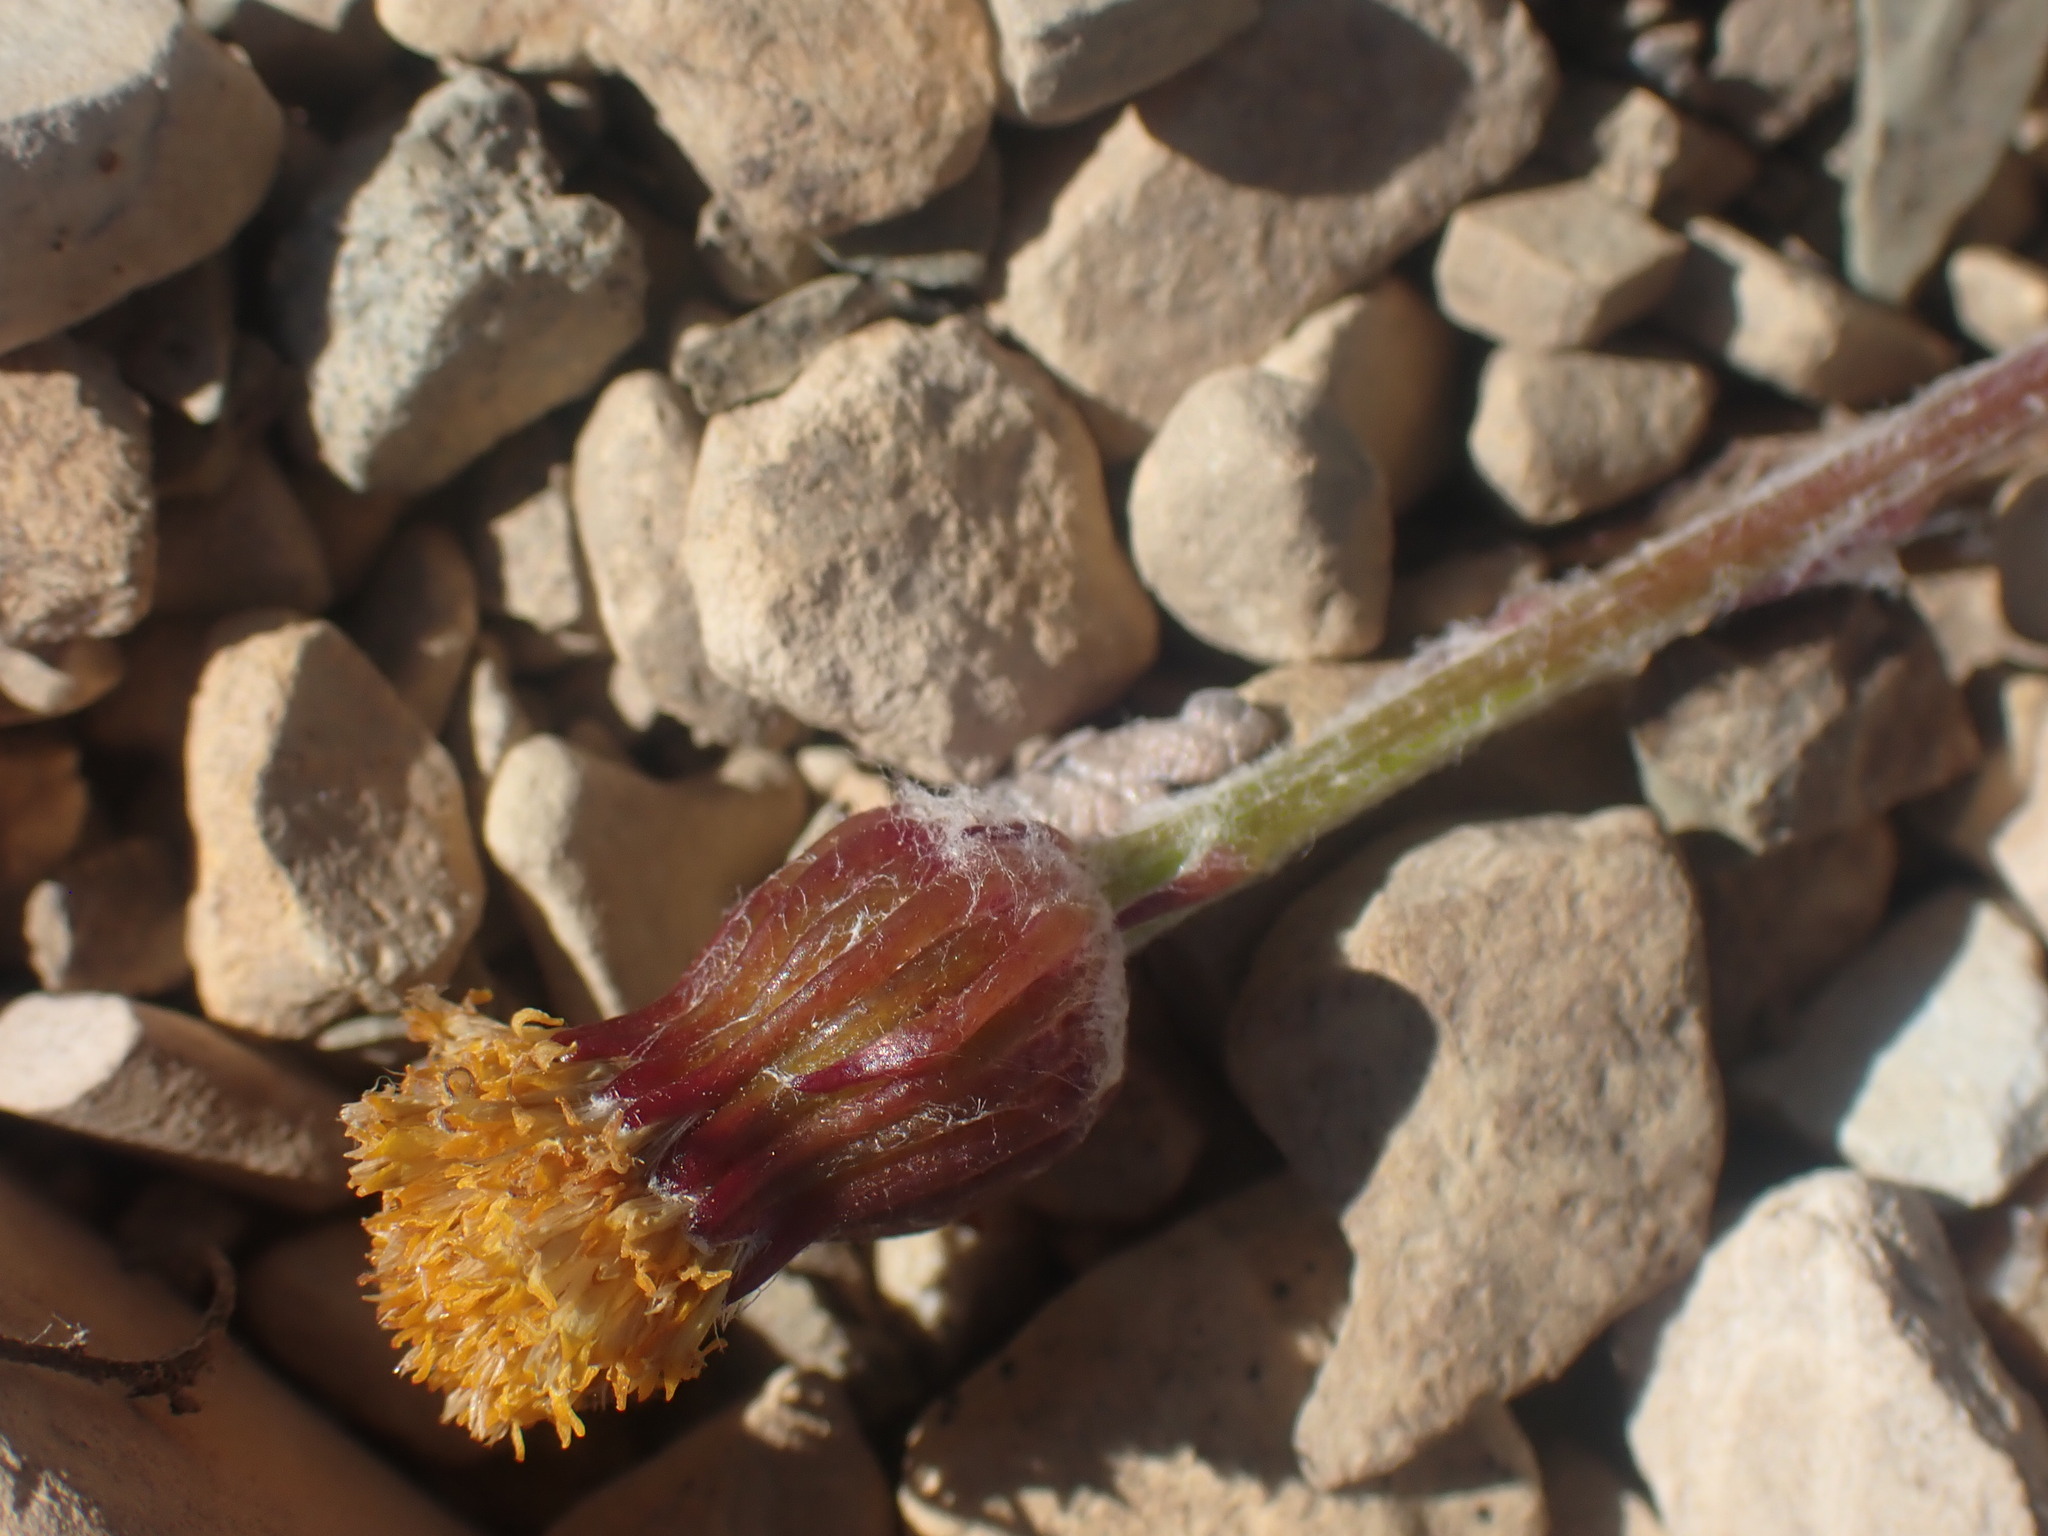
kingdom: Plantae
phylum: Tracheophyta
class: Magnoliopsida
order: Asterales
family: Asteraceae
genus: Packera
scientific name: Packera contermina
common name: High alpine butterweed
